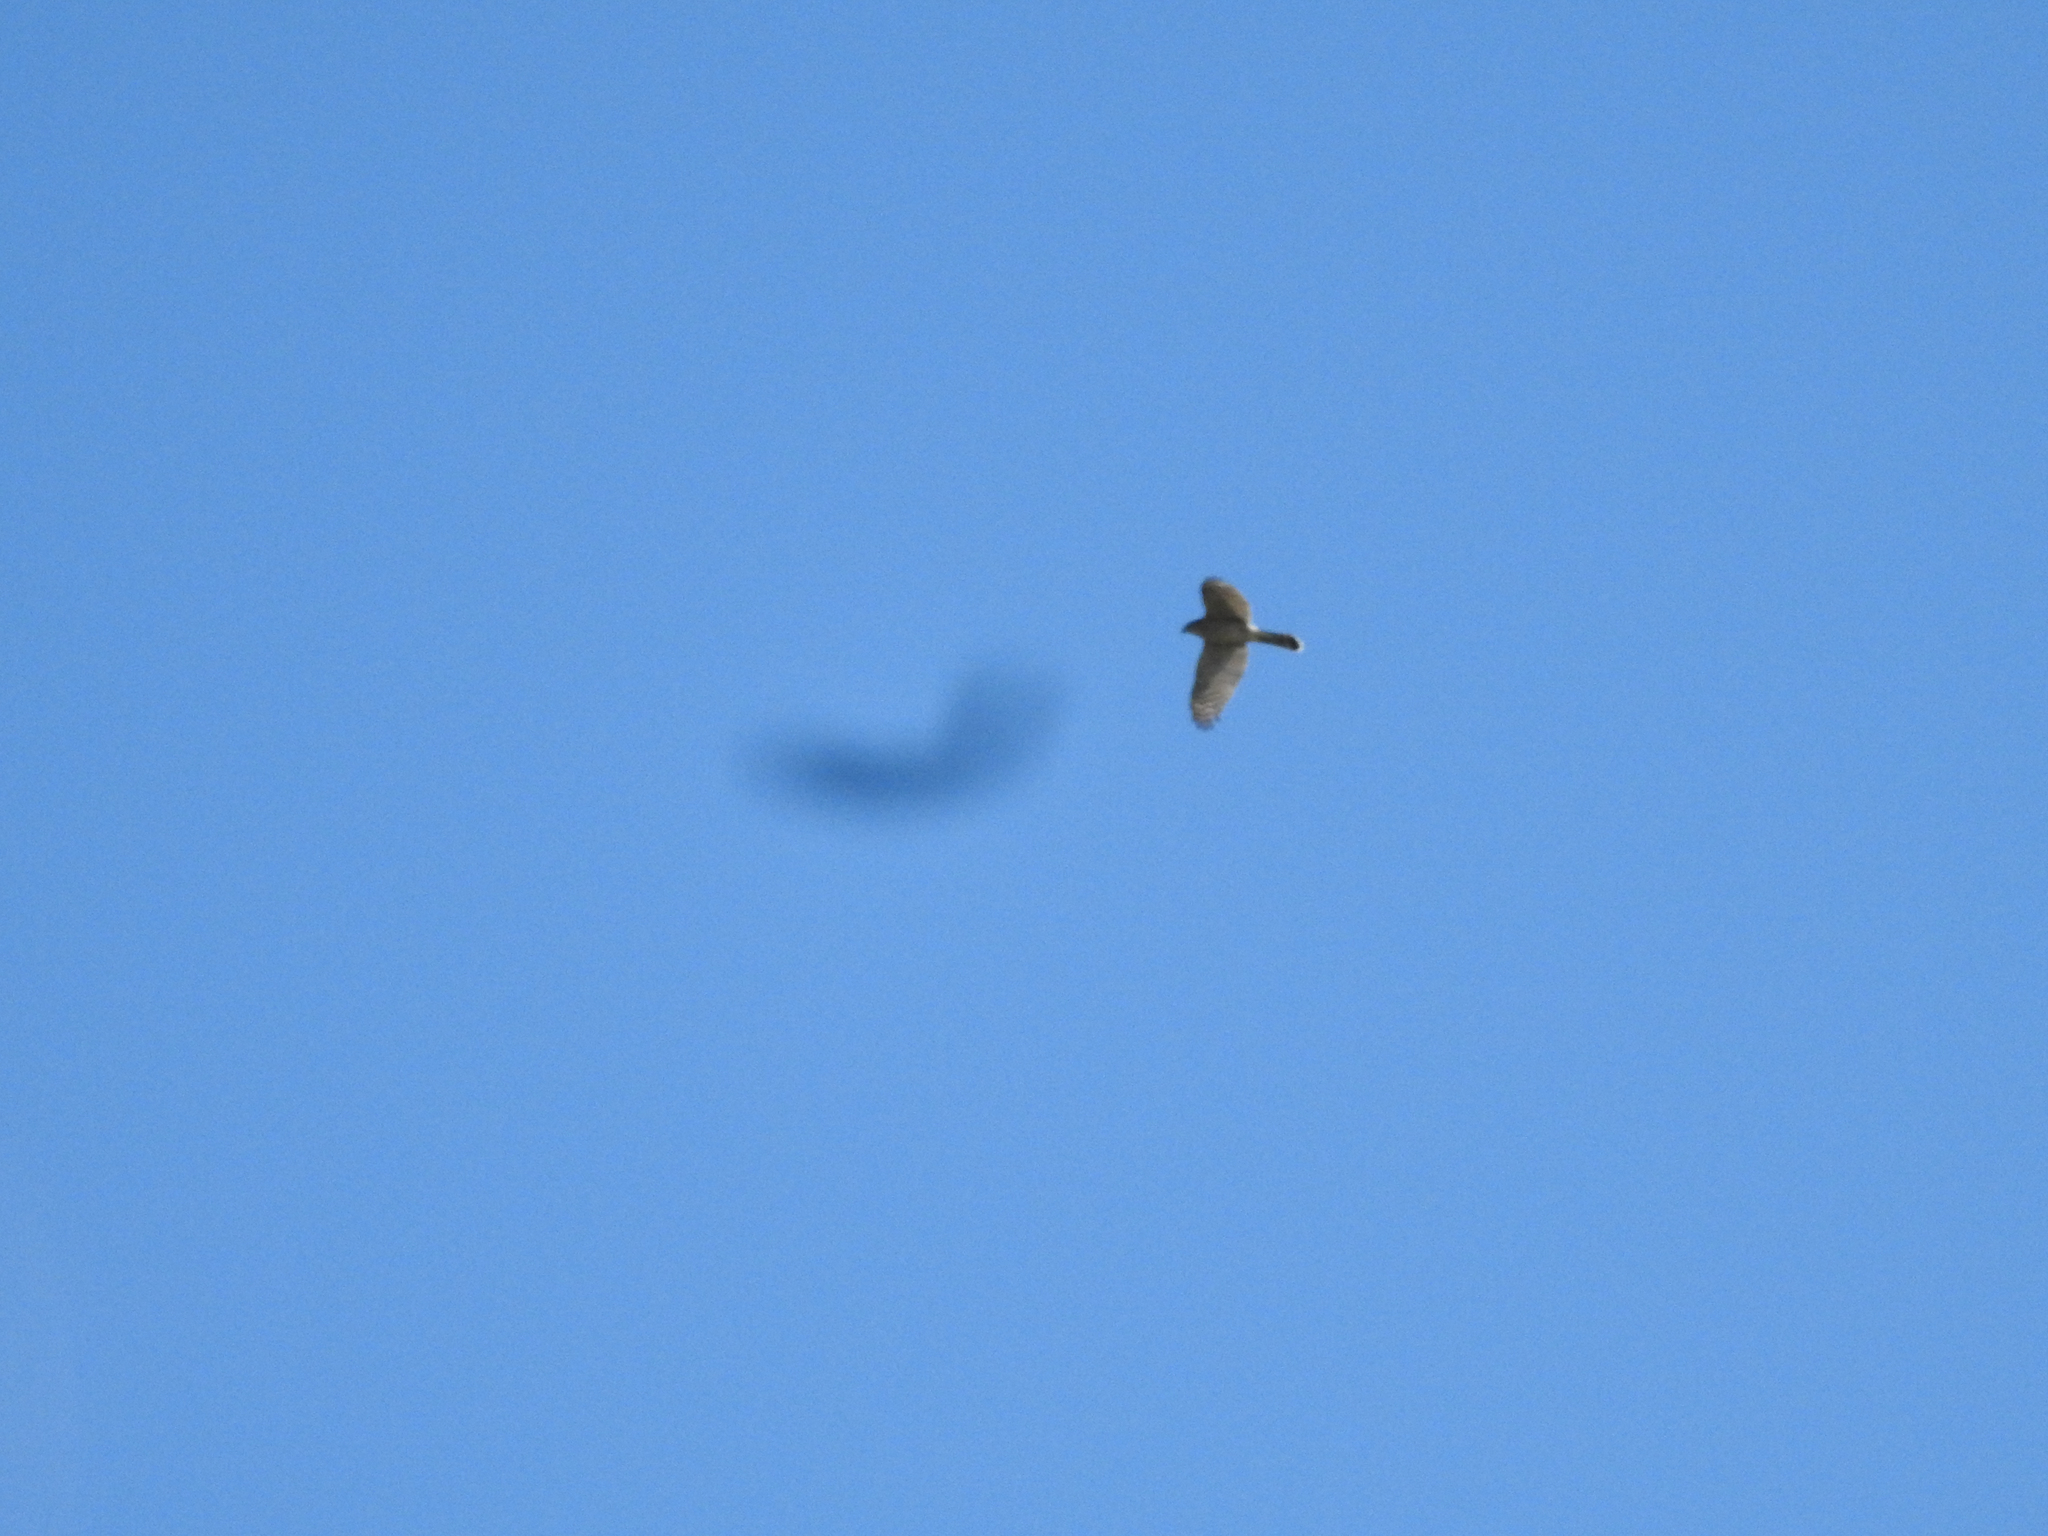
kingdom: Animalia
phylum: Chordata
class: Aves
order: Accipitriformes
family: Accipitridae
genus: Accipiter
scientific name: Accipiter cooperii
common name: Cooper's hawk
